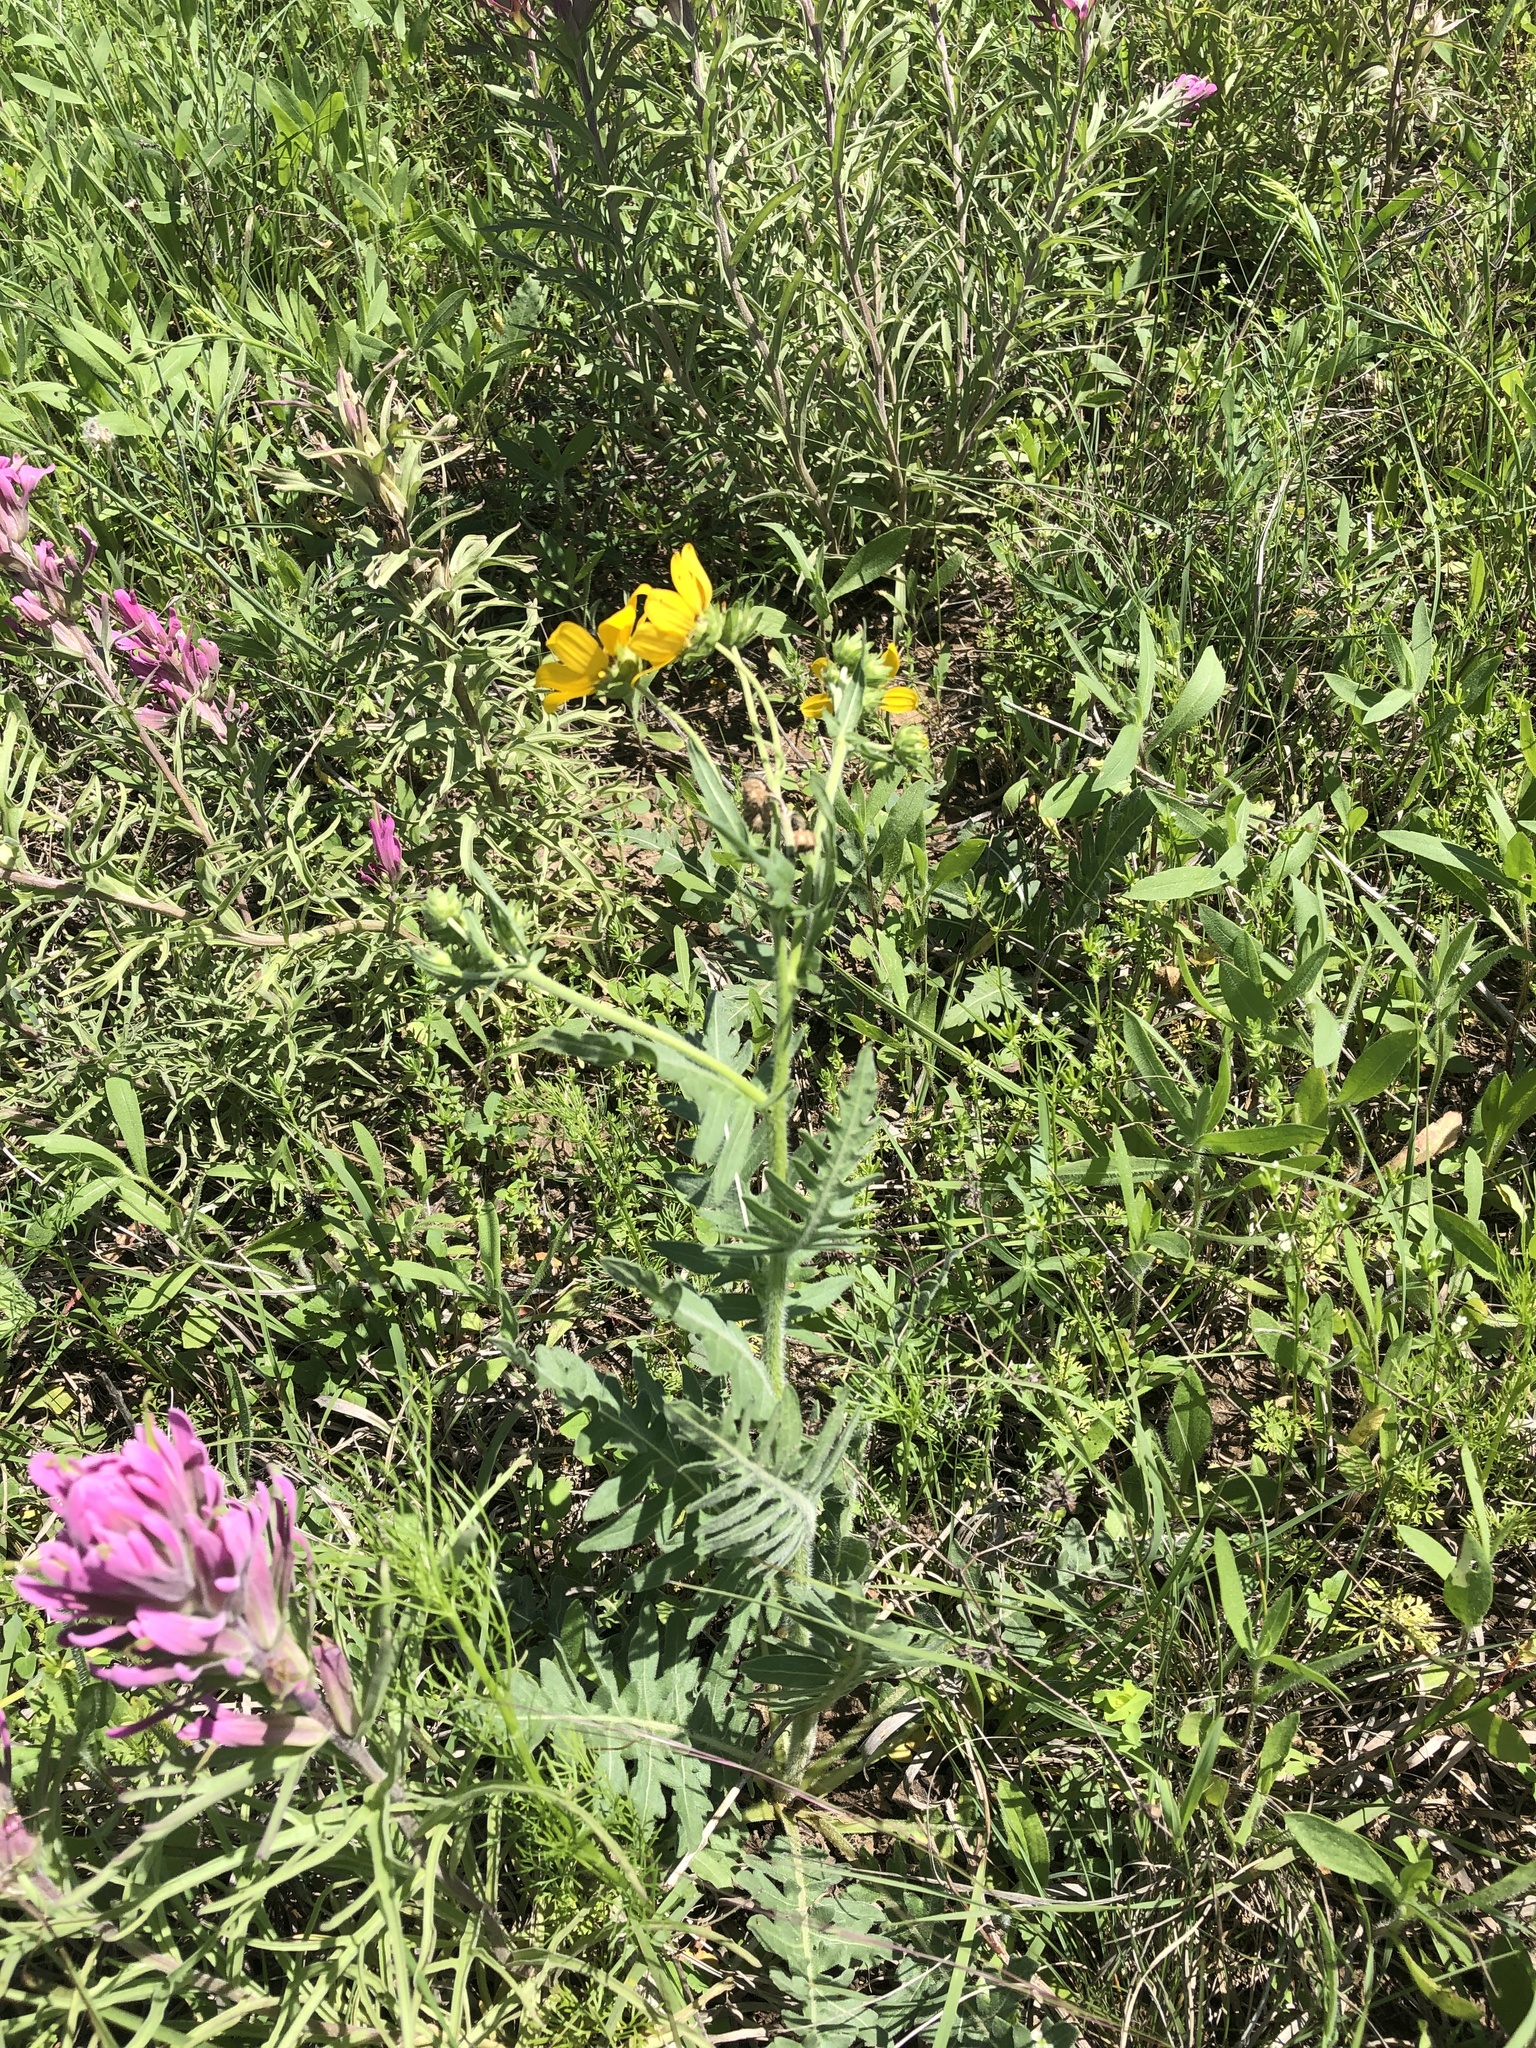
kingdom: Plantae
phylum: Tracheophyta
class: Magnoliopsida
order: Asterales
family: Asteraceae
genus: Engelmannia
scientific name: Engelmannia peristenia
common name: Engelmann's daisy
